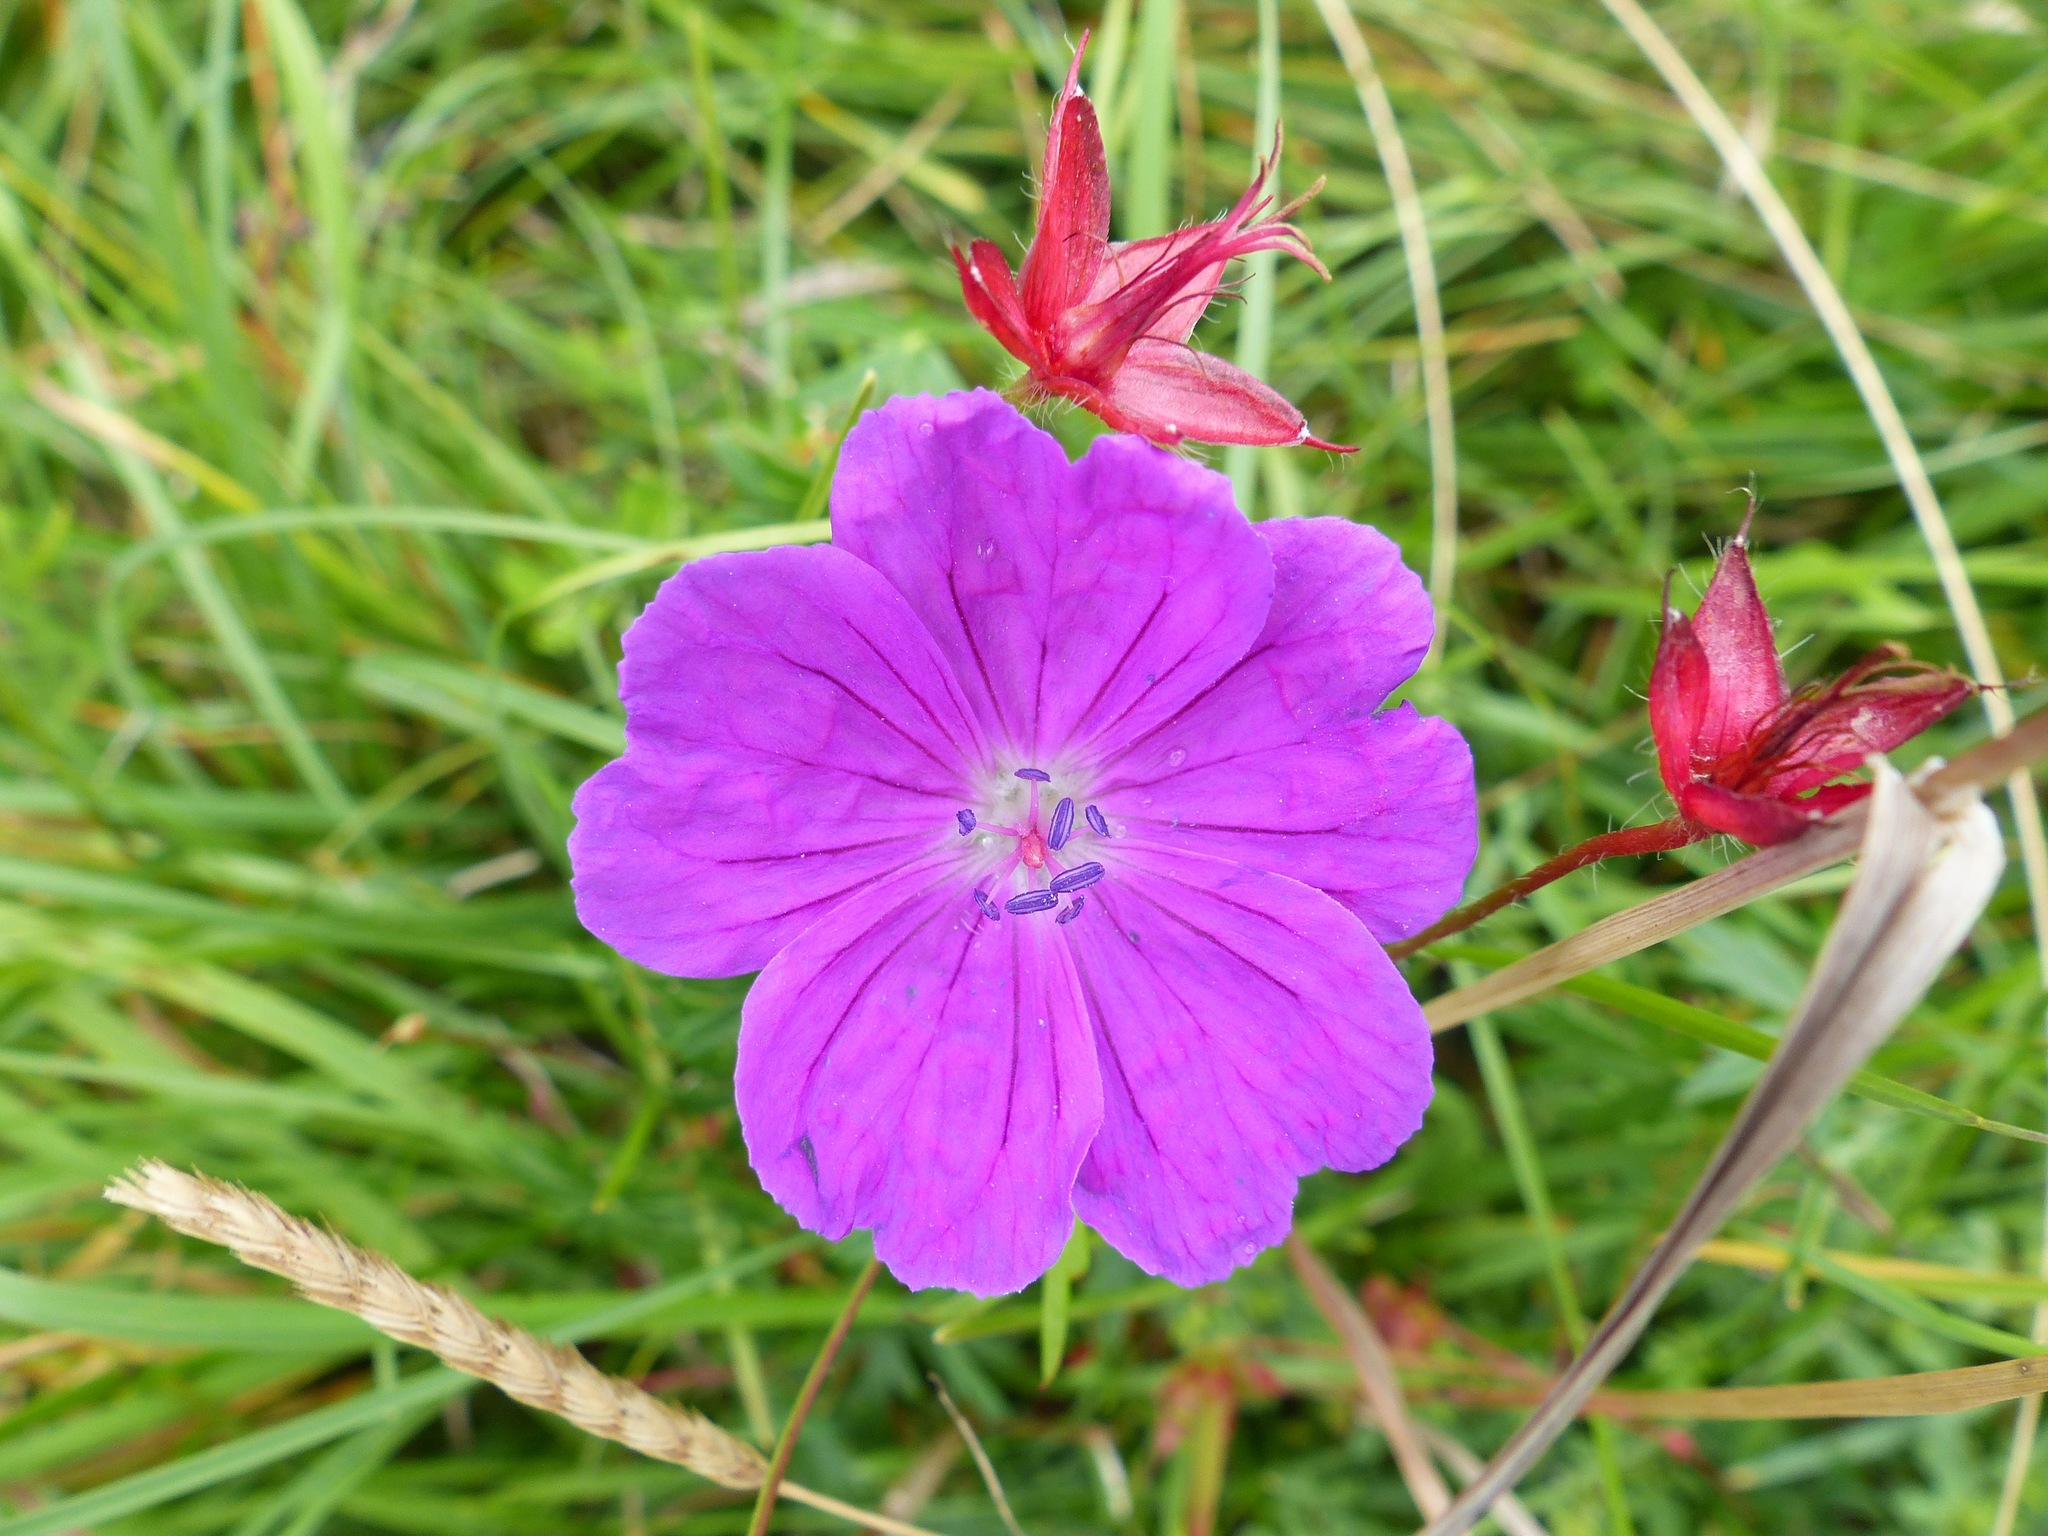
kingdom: Plantae
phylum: Tracheophyta
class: Magnoliopsida
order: Geraniales
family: Geraniaceae
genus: Geranium
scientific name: Geranium sanguineum
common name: Bloody crane's-bill
